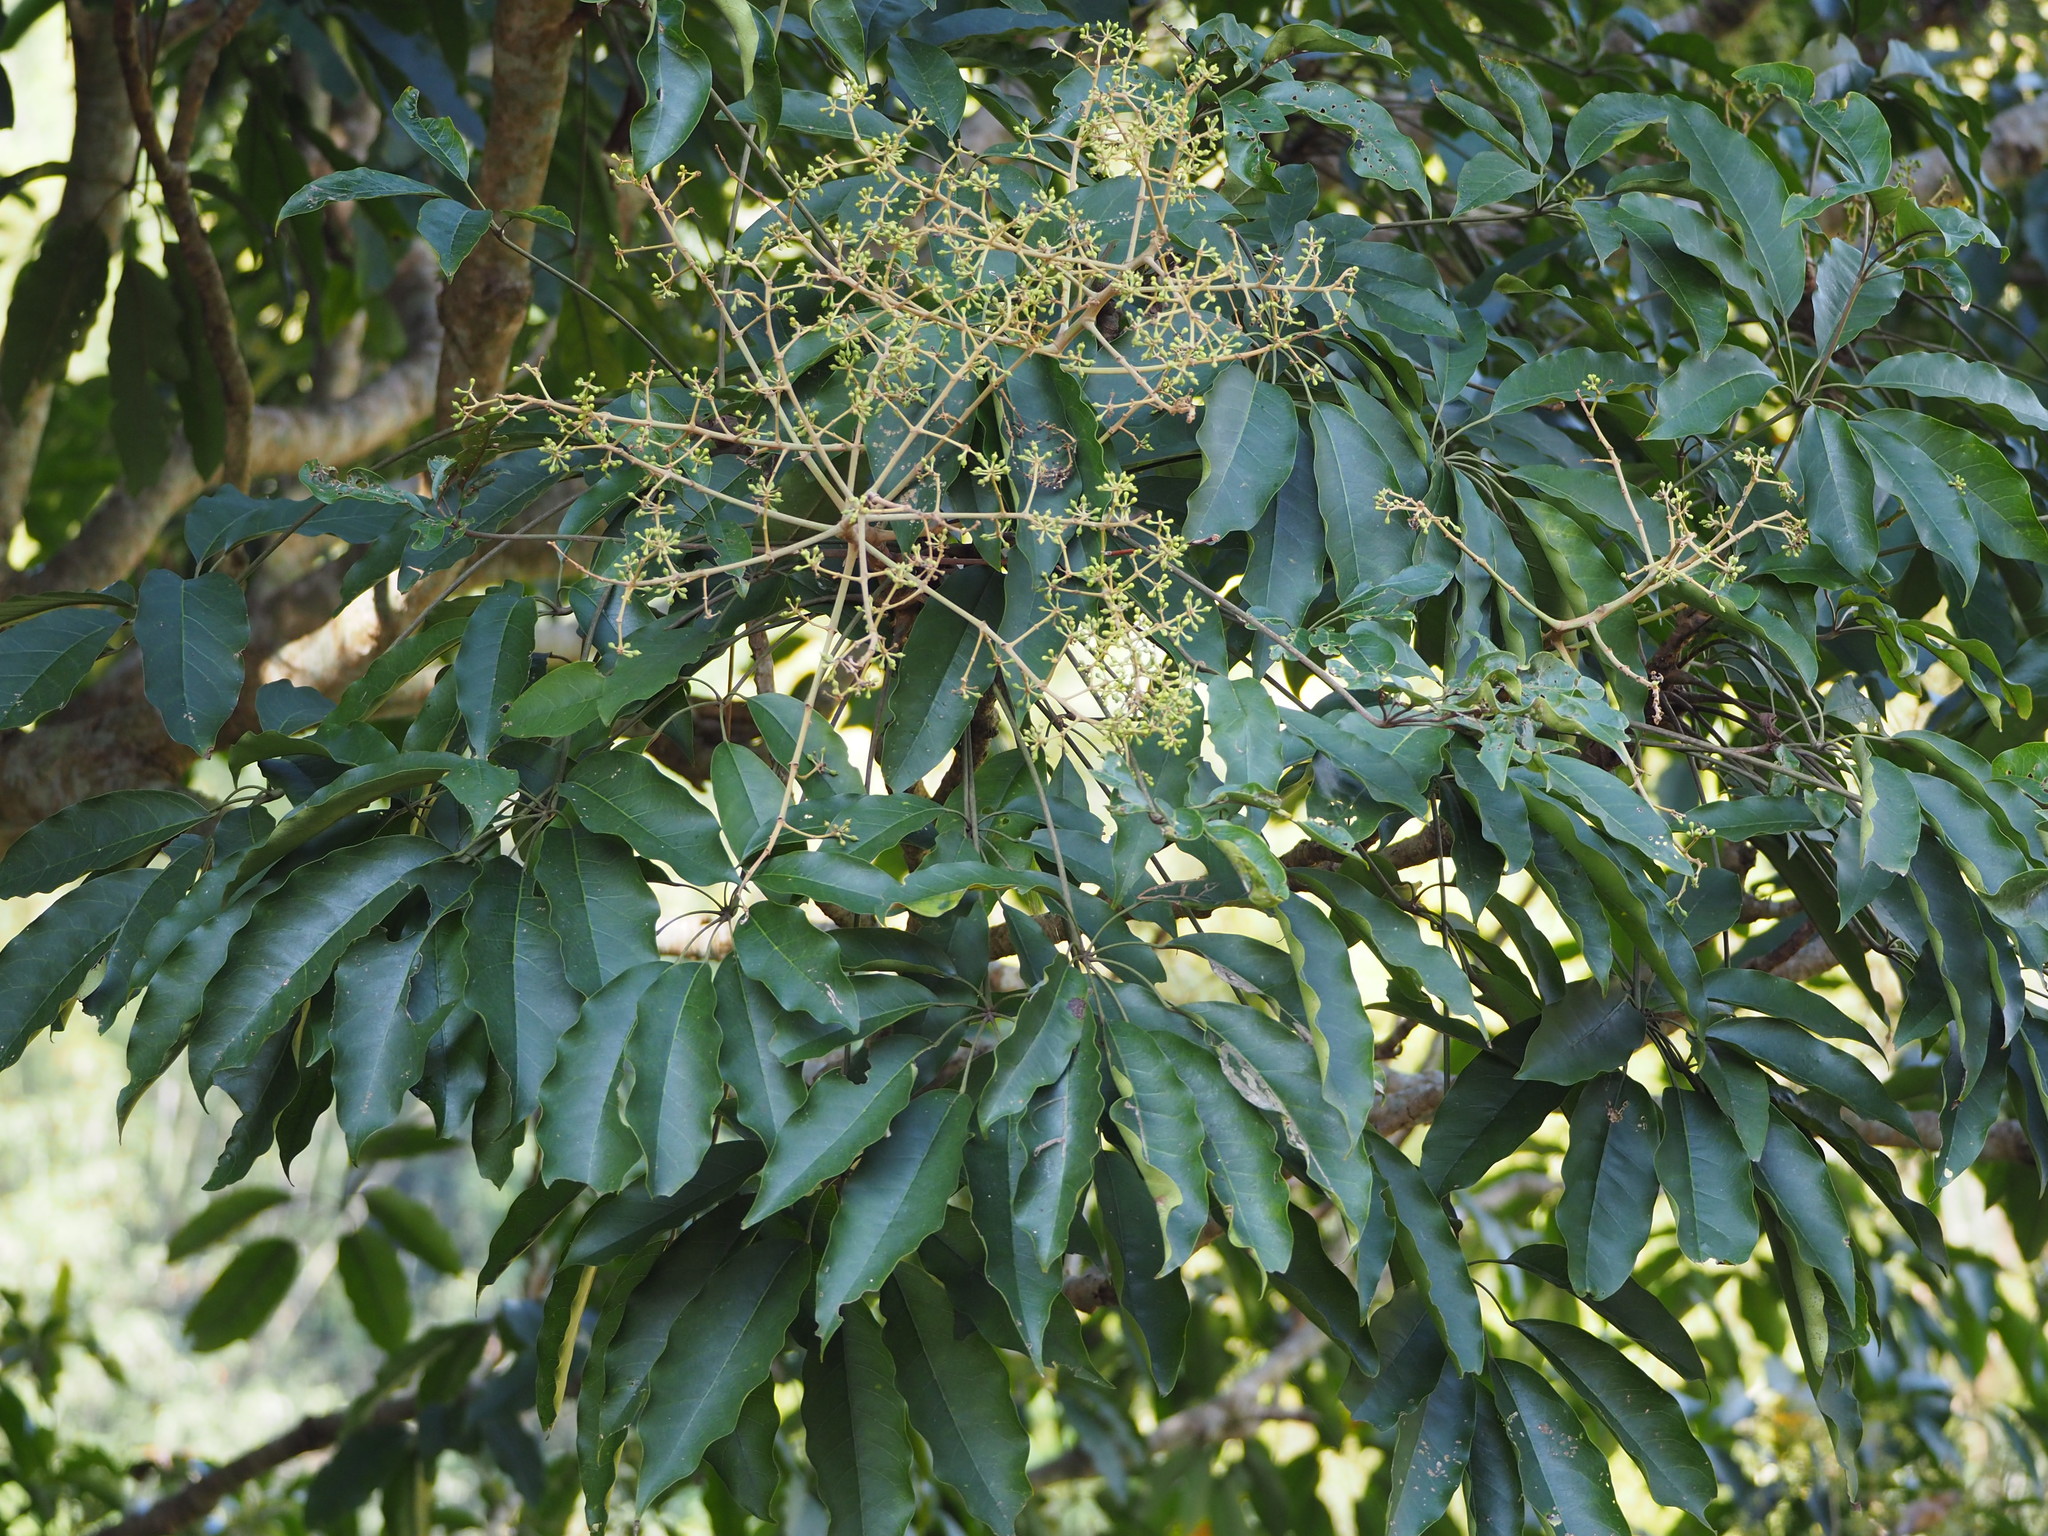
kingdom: Plantae
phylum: Tracheophyta
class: Magnoliopsida
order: Apiales
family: Araliaceae
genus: Heptapleurum
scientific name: Heptapleurum heptaphyllum
